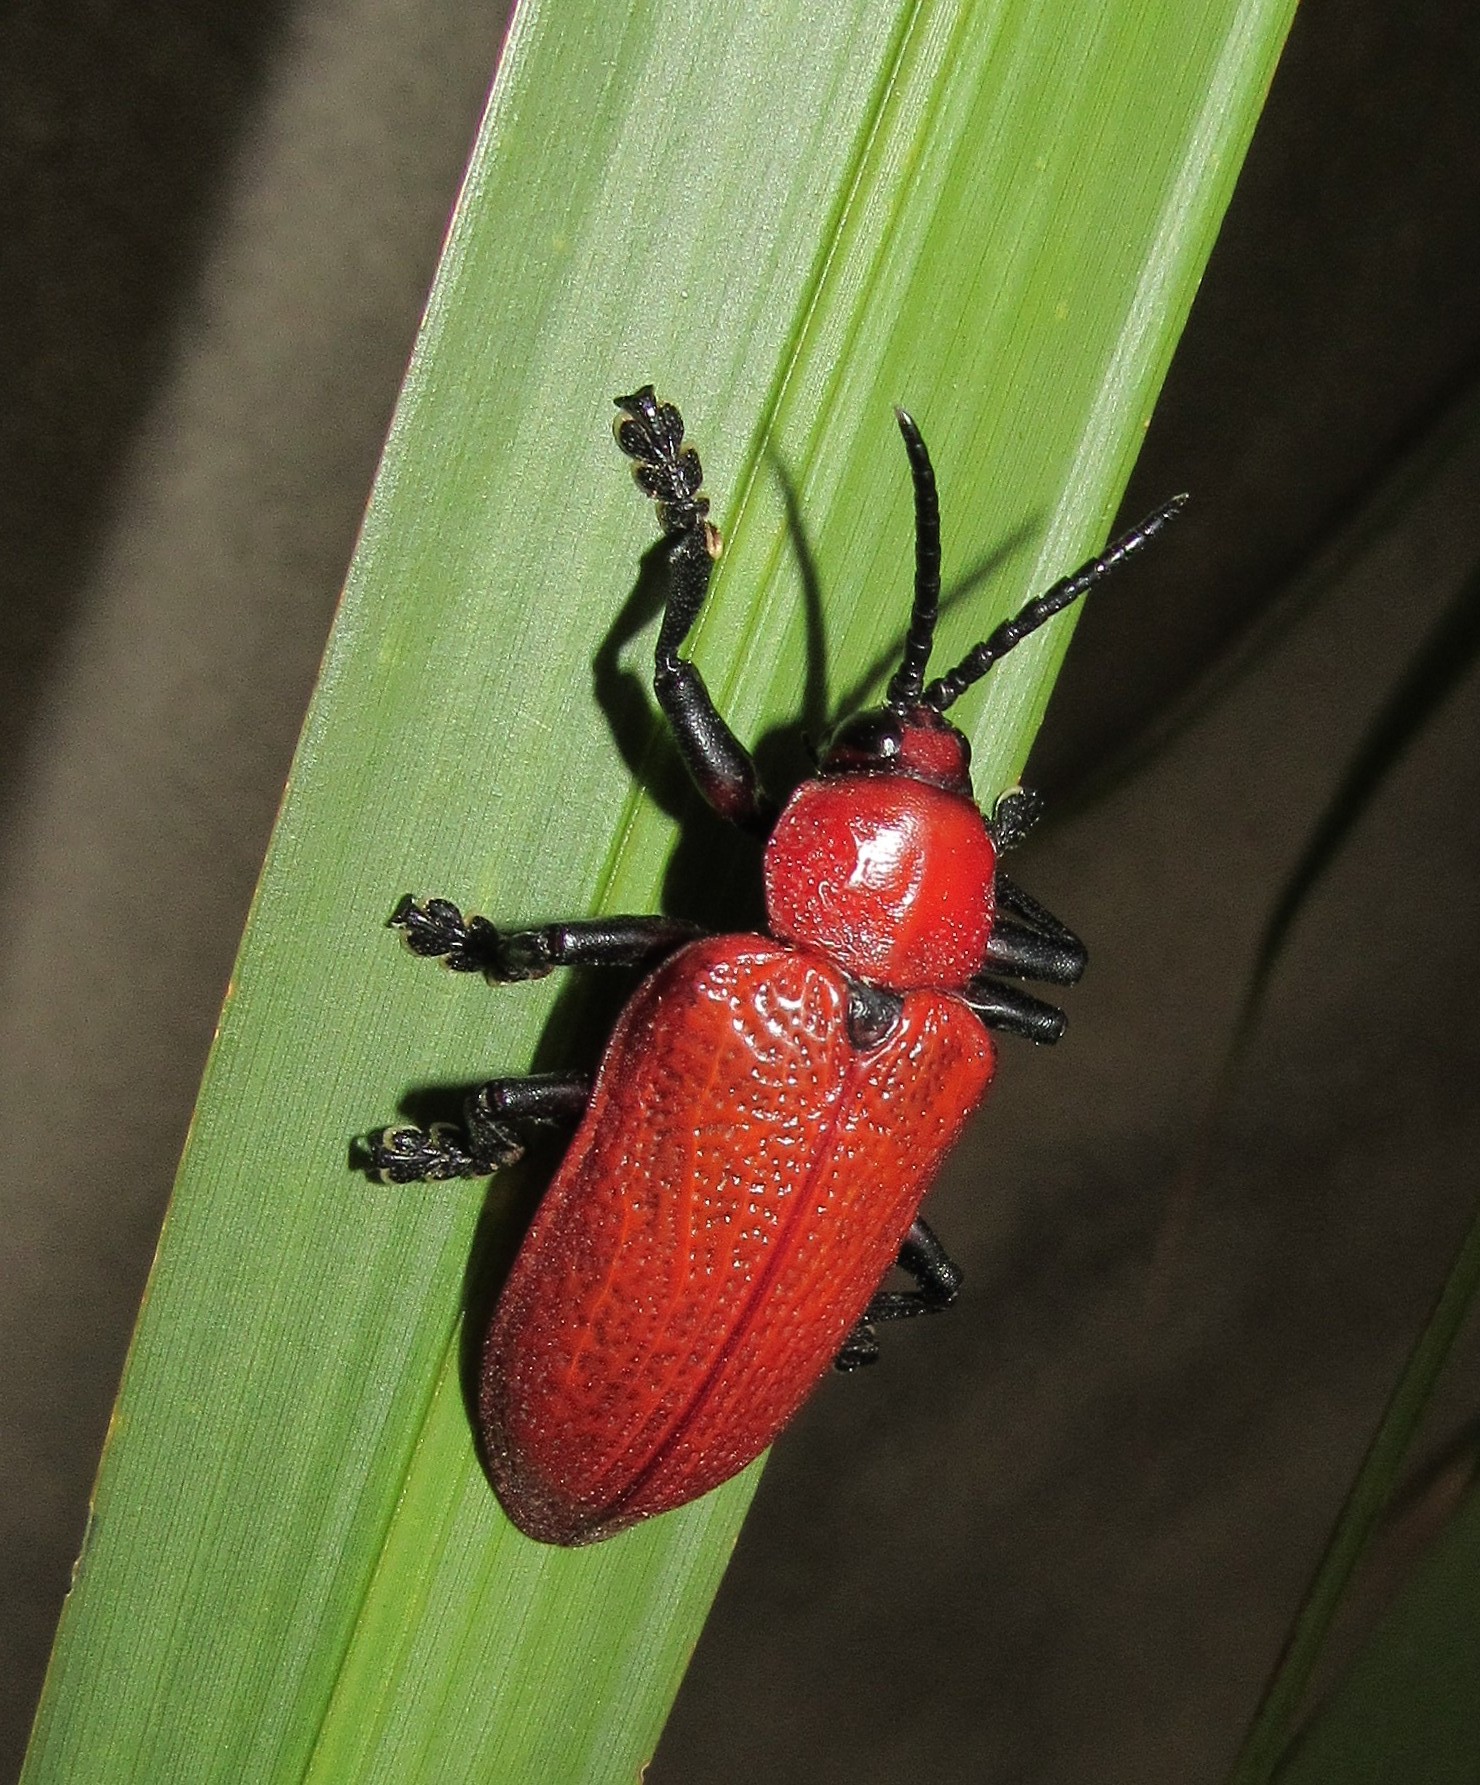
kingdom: Animalia
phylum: Arthropoda
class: Insecta
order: Coleoptera
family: Chrysomelidae
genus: Coraliomela
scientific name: Coraliomela brunnea
